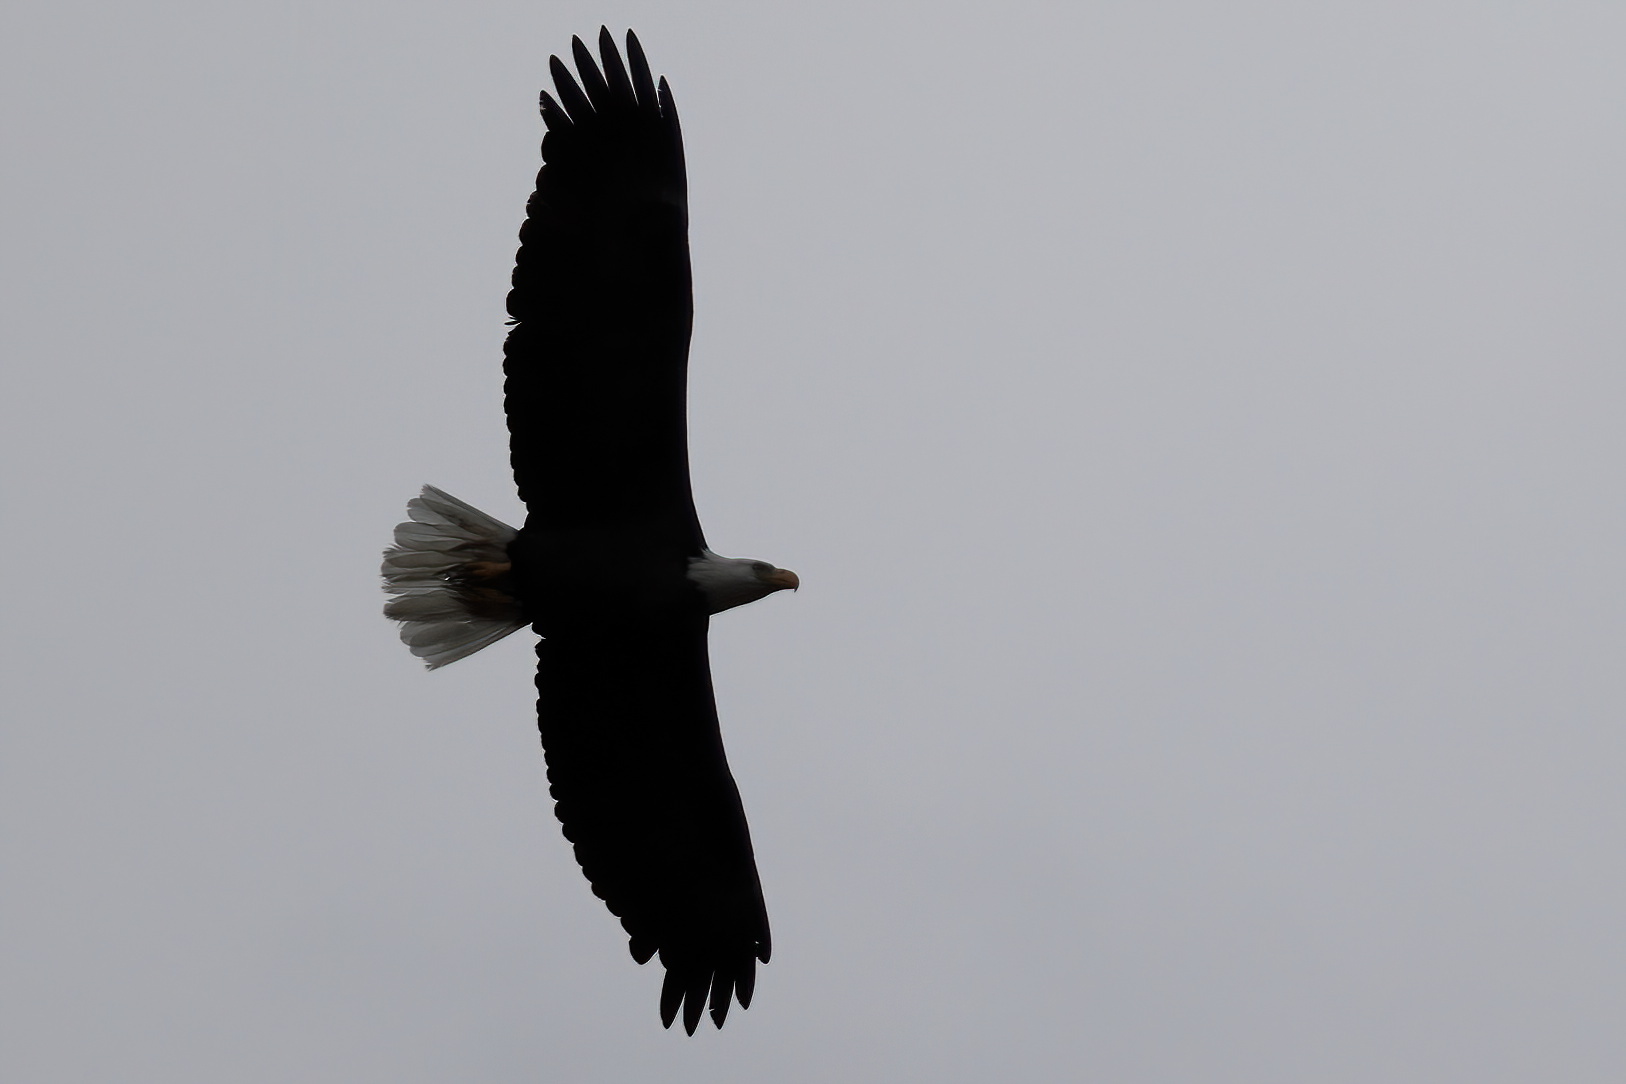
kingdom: Animalia
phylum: Chordata
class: Aves
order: Accipitriformes
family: Accipitridae
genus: Haliaeetus
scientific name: Haliaeetus leucocephalus
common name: Bald eagle
